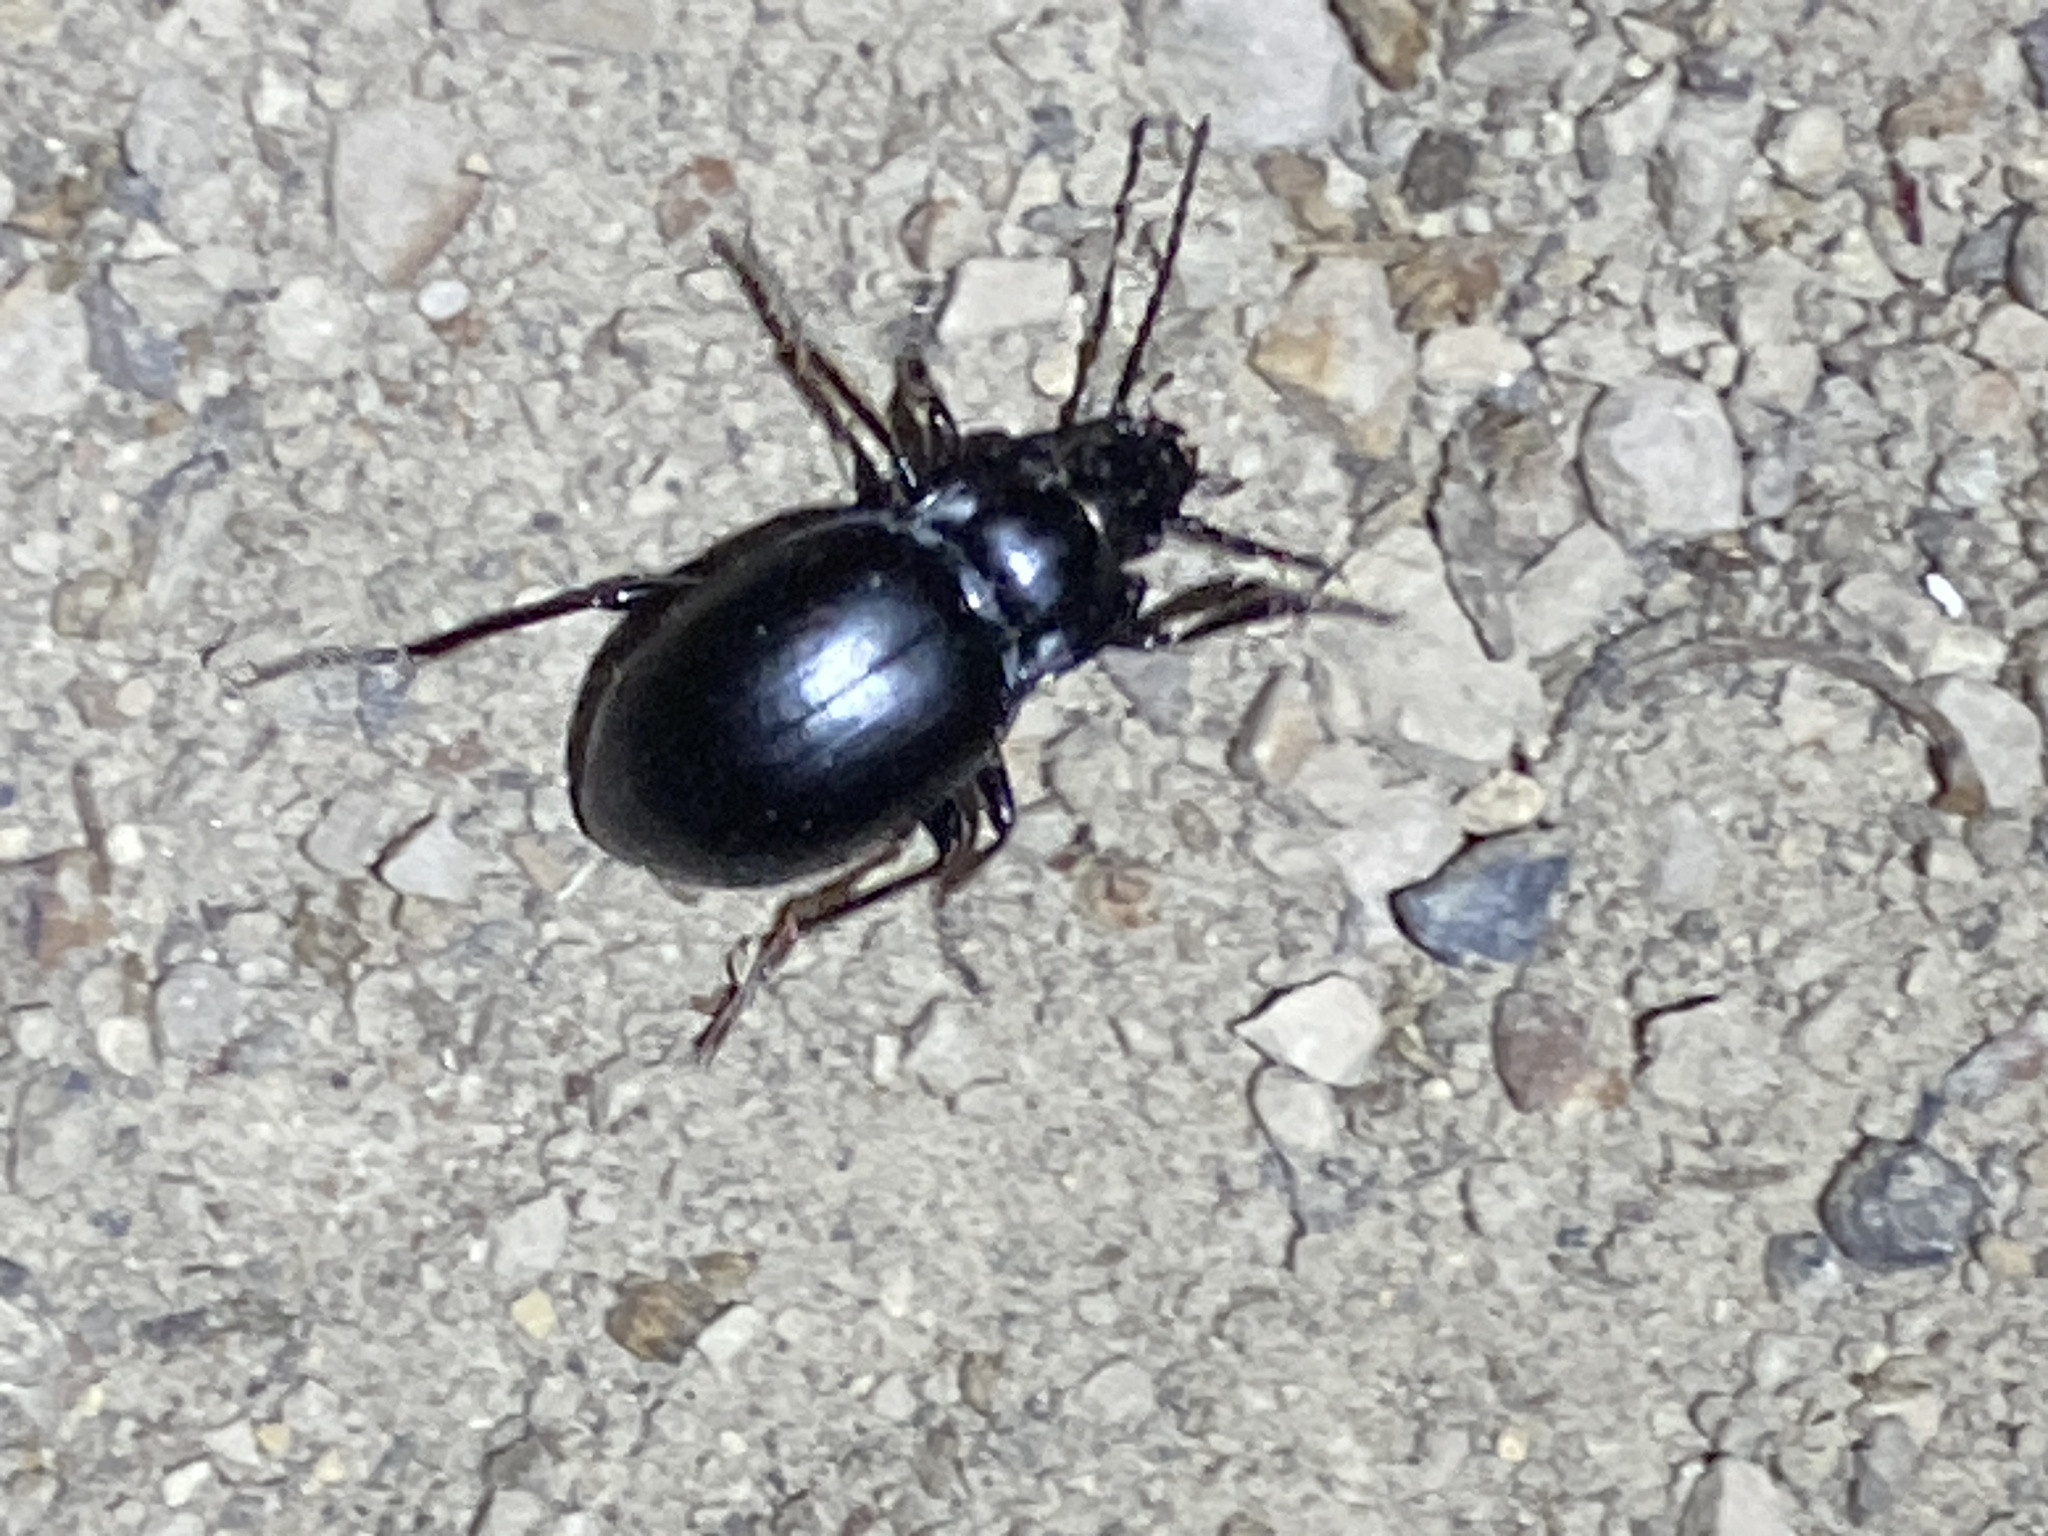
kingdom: Animalia
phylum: Arthropoda
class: Insecta
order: Coleoptera
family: Carabidae
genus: Metrius
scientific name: Metrius contractus
